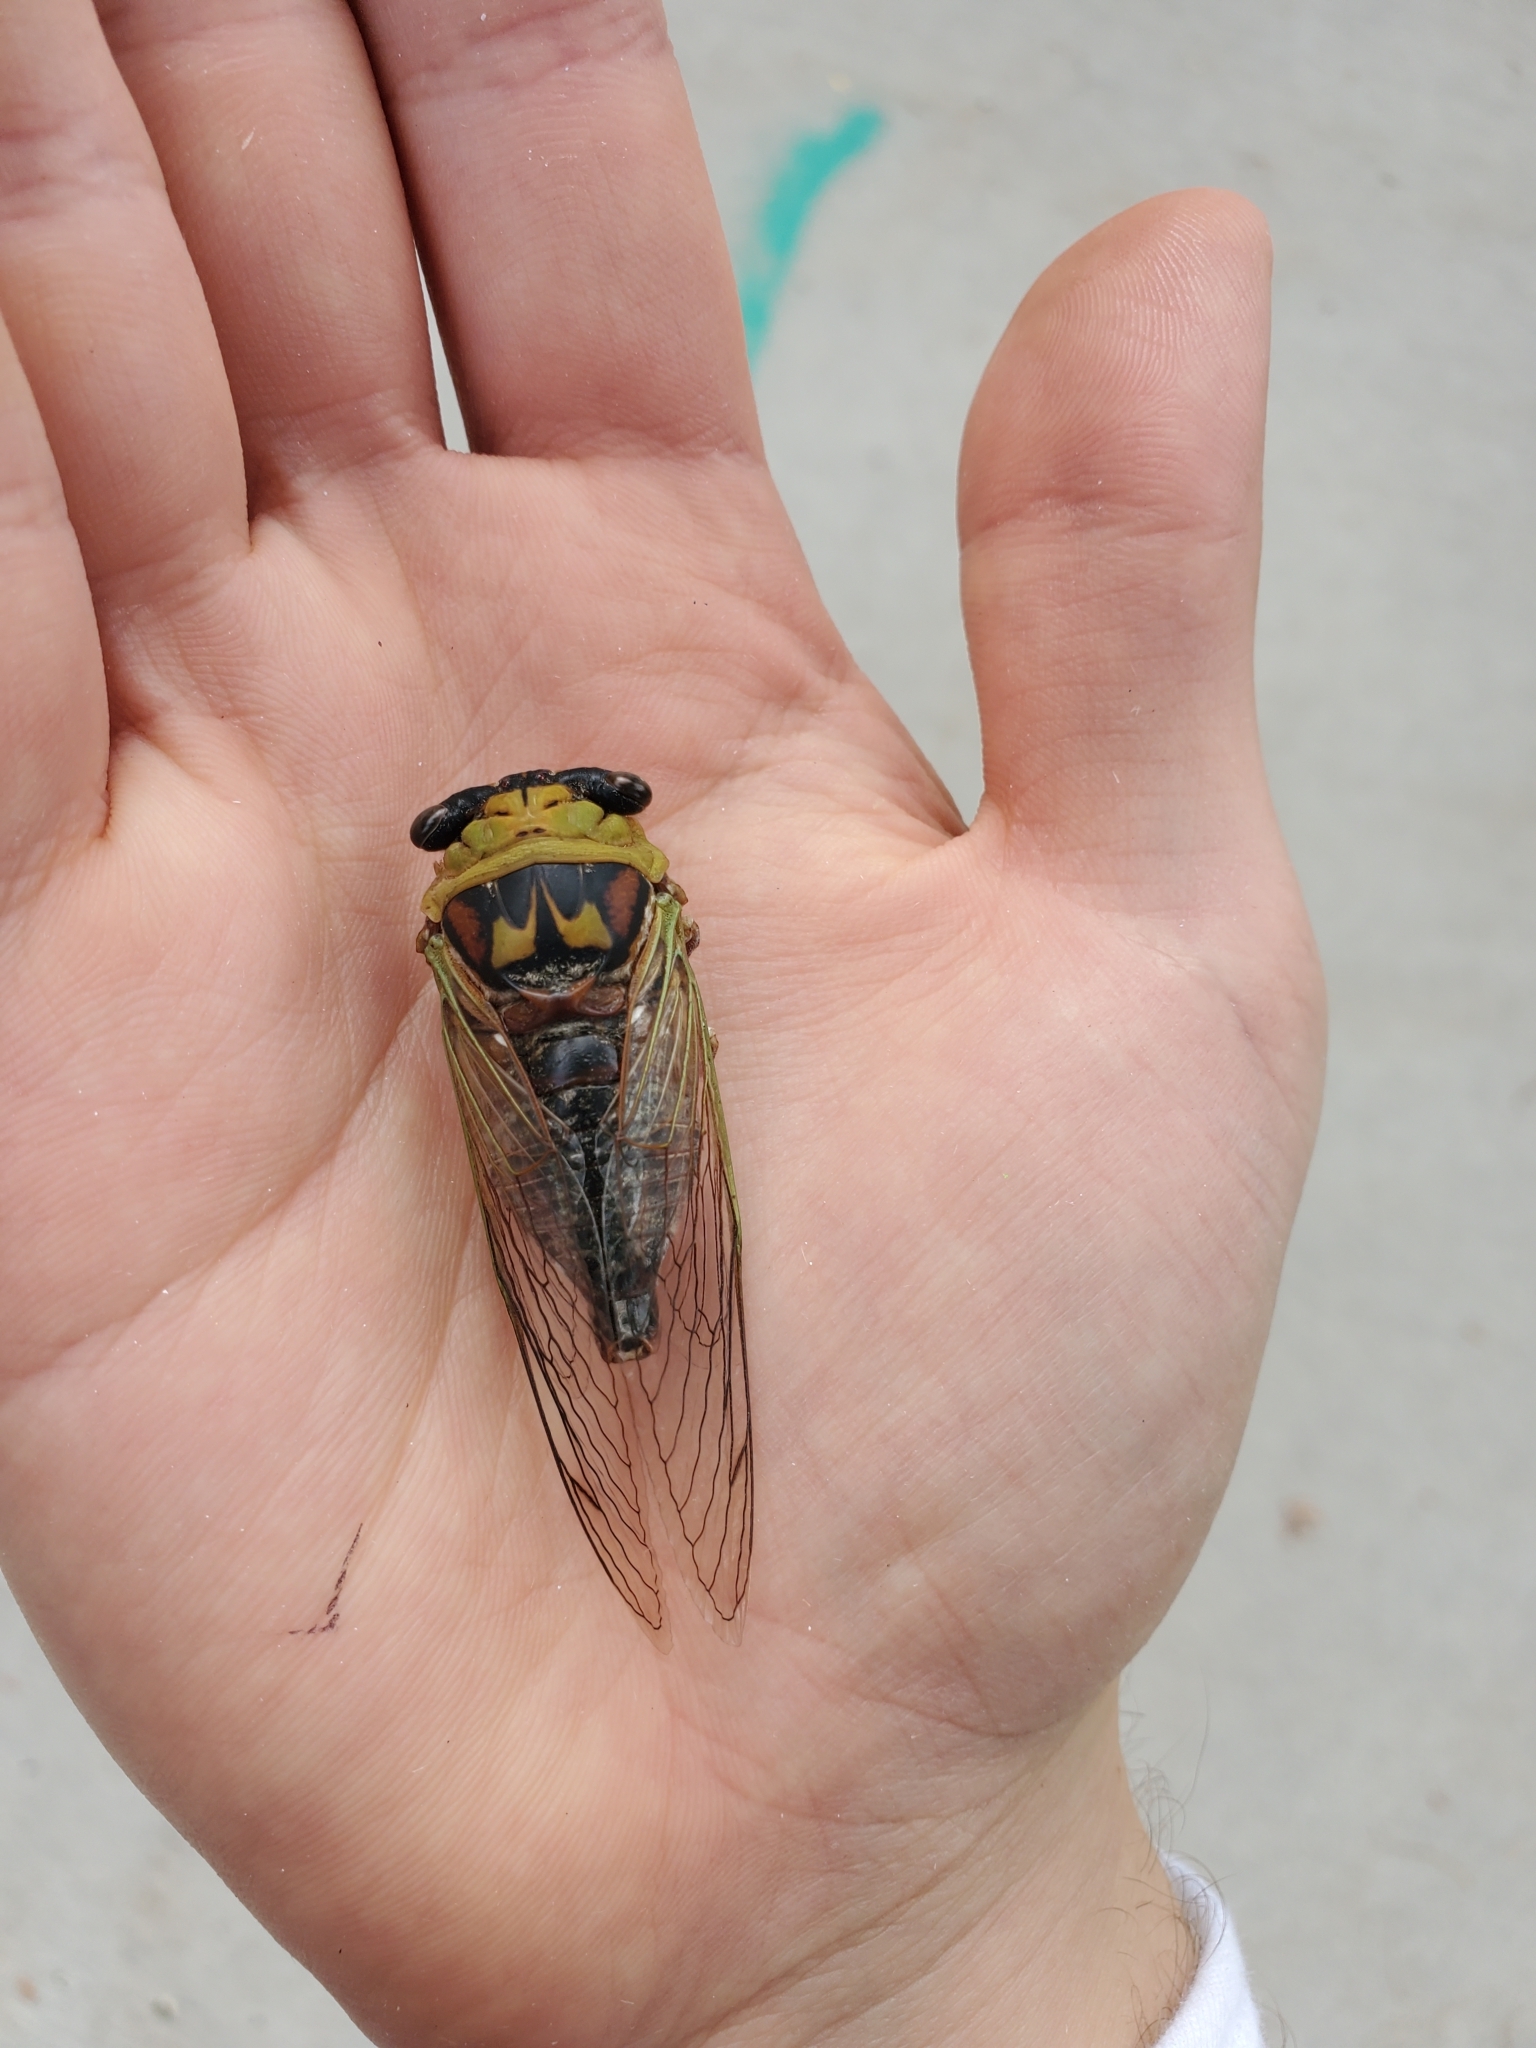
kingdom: Animalia
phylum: Arthropoda
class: Insecta
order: Hemiptera
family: Cicadidae
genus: Megatibicen
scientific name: Megatibicen pronotalis
